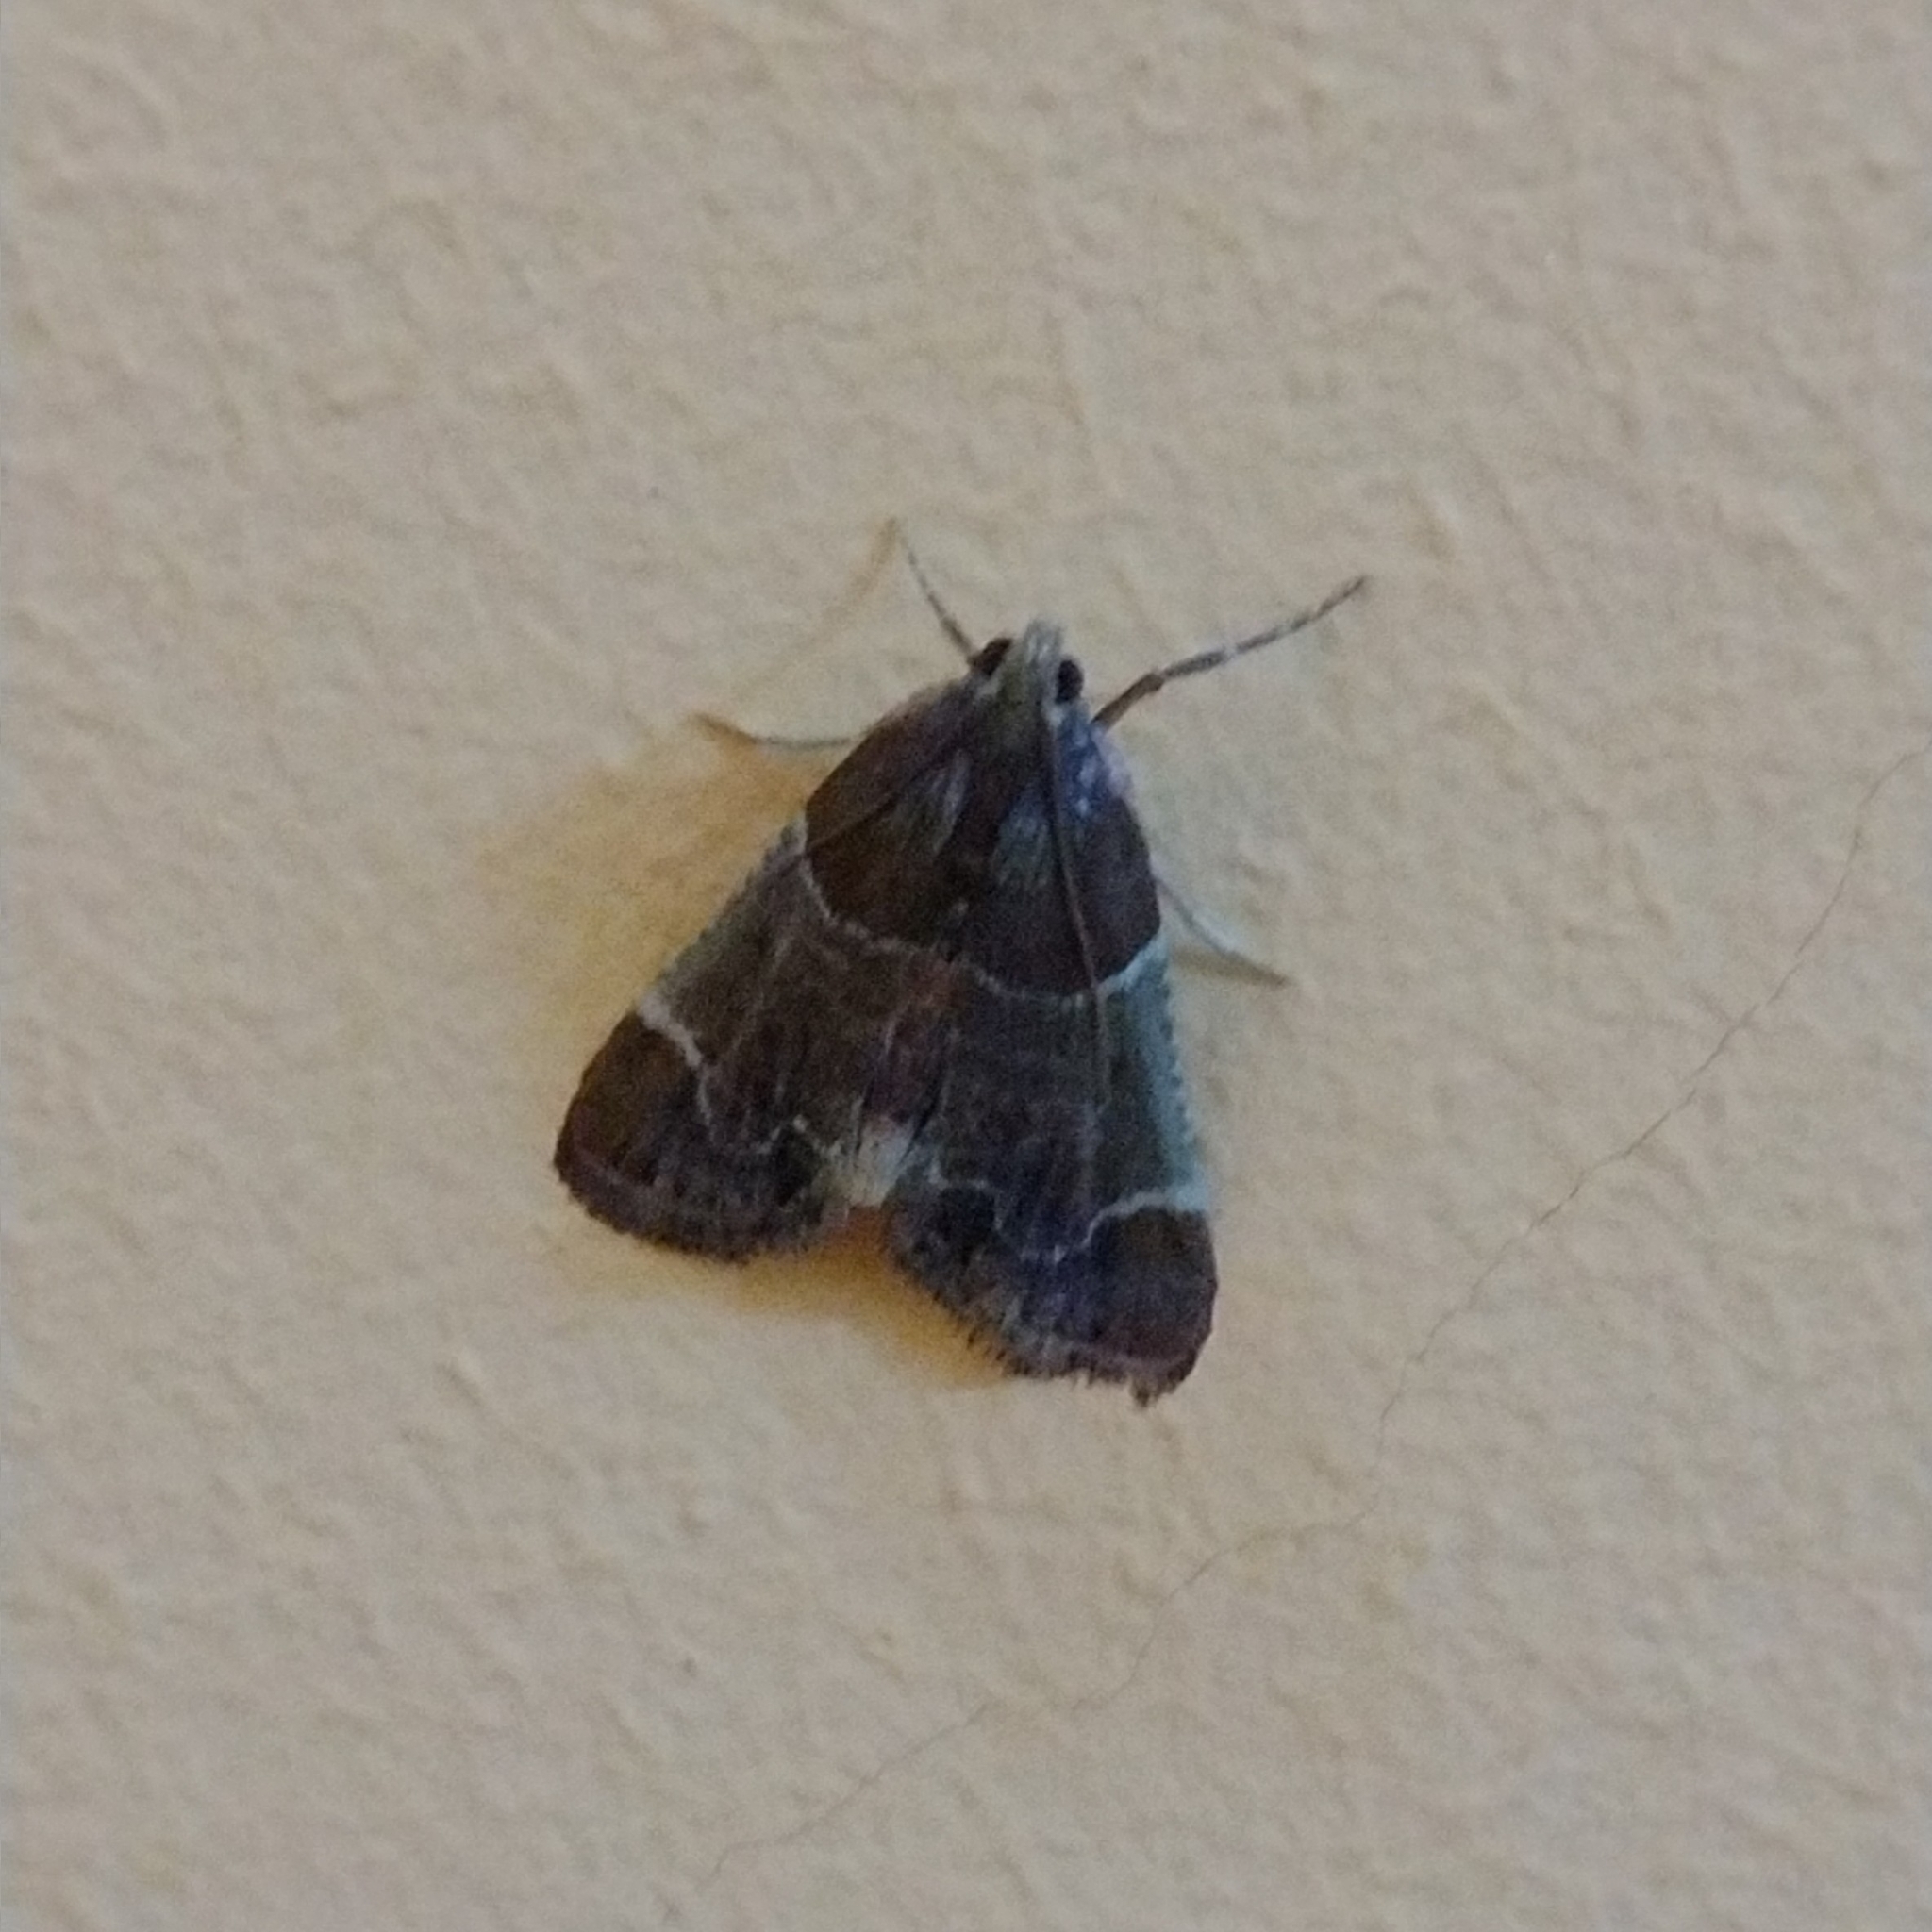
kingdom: Animalia
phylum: Arthropoda
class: Insecta
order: Lepidoptera
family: Pyralidae
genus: Pyralis
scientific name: Pyralis farinalis
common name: Meal moth
